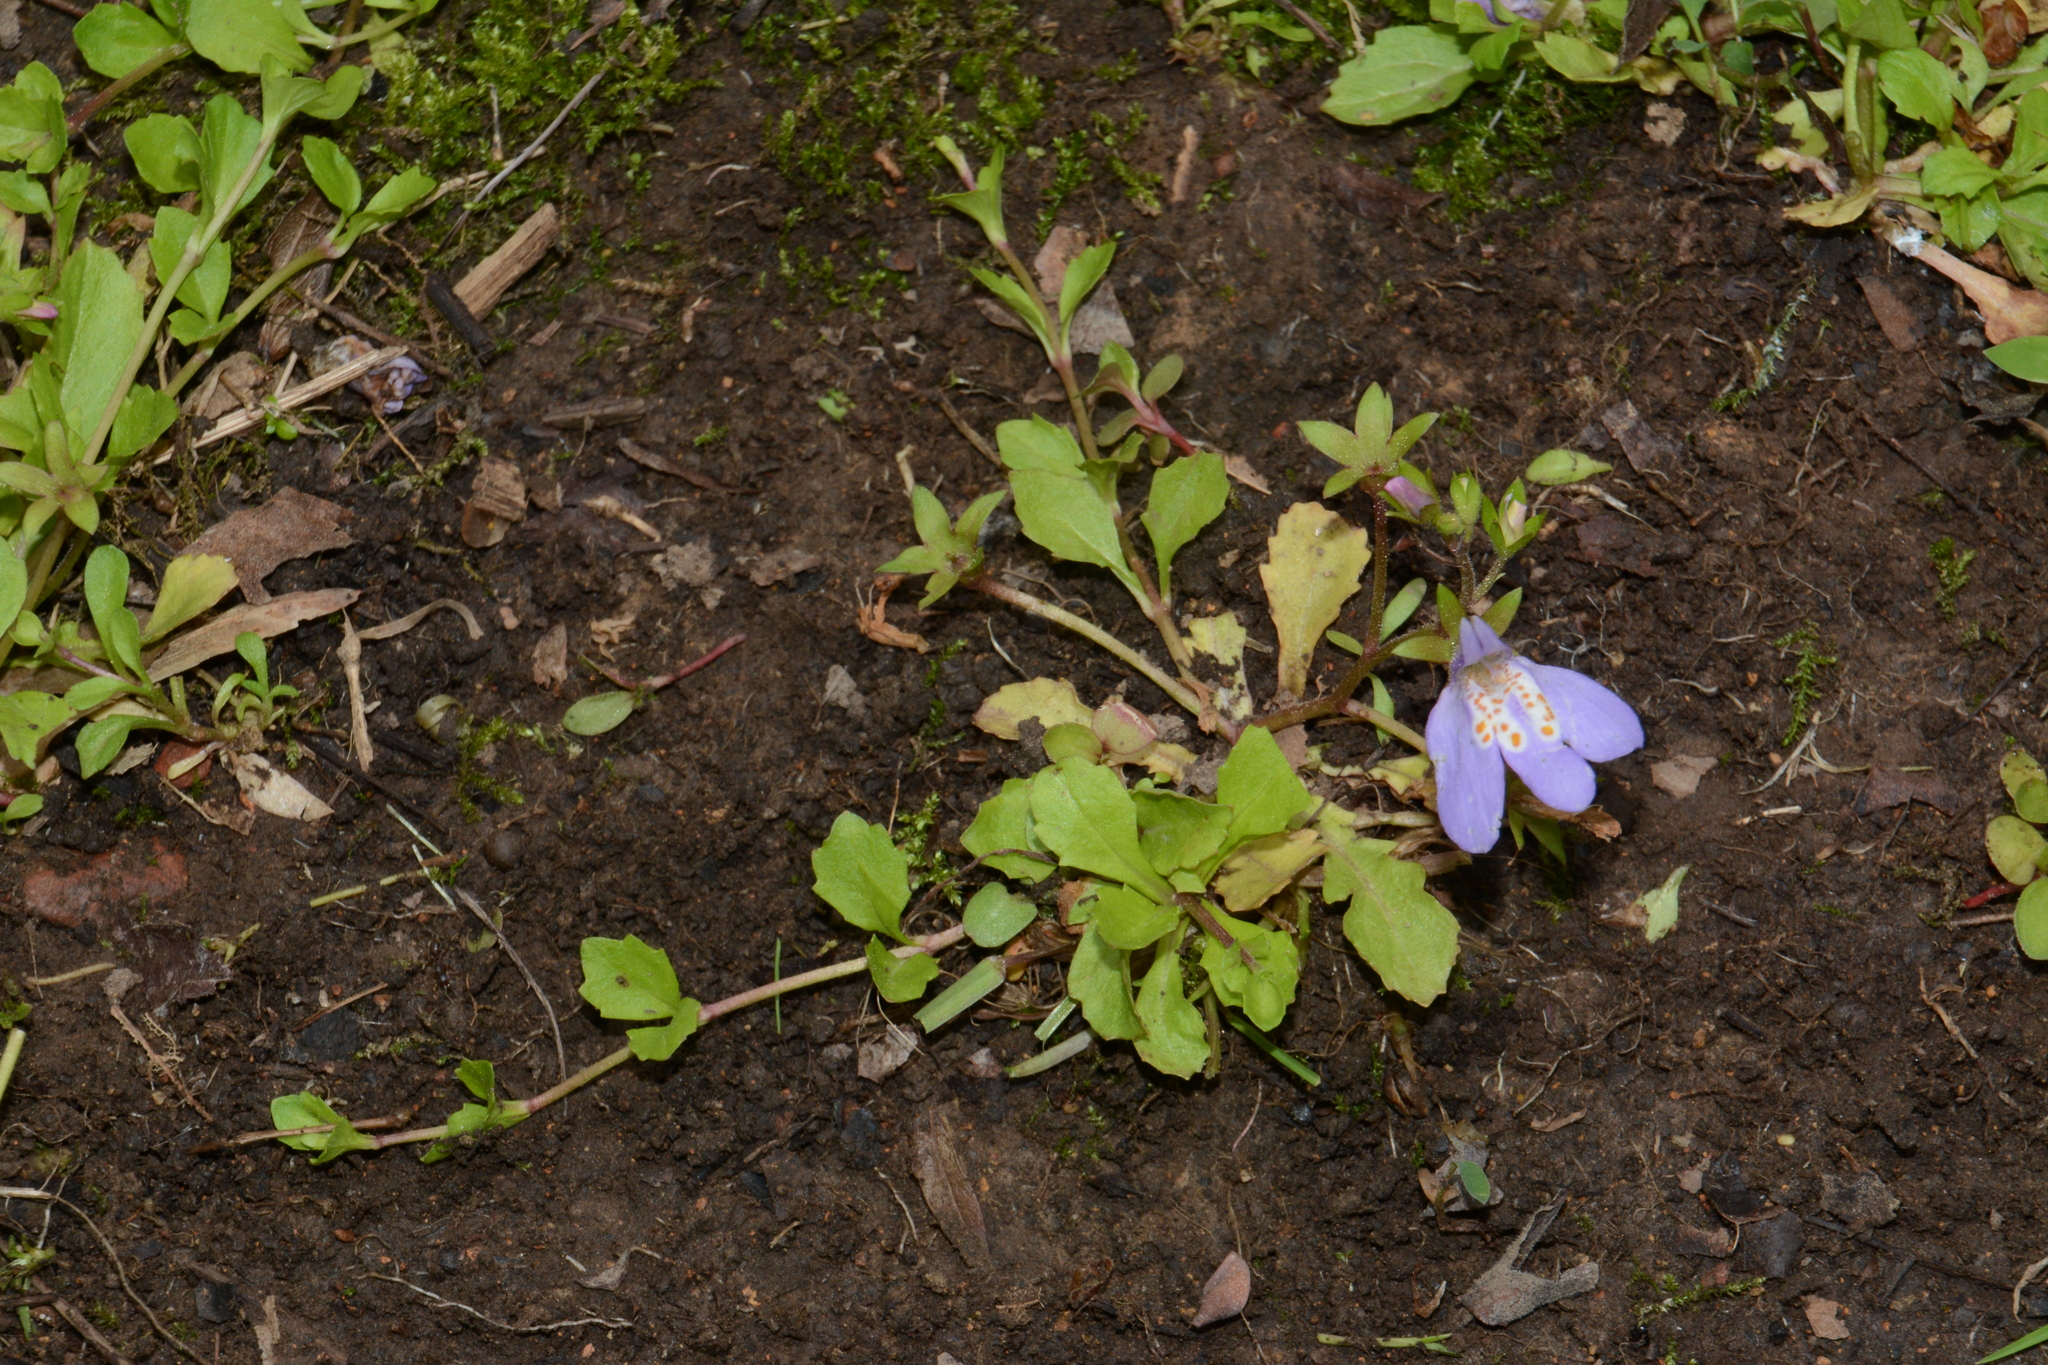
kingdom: Plantae
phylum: Tracheophyta
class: Magnoliopsida
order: Lamiales
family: Mazaceae
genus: Mazus
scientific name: Mazus miquelii
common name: Miquel's mazus
